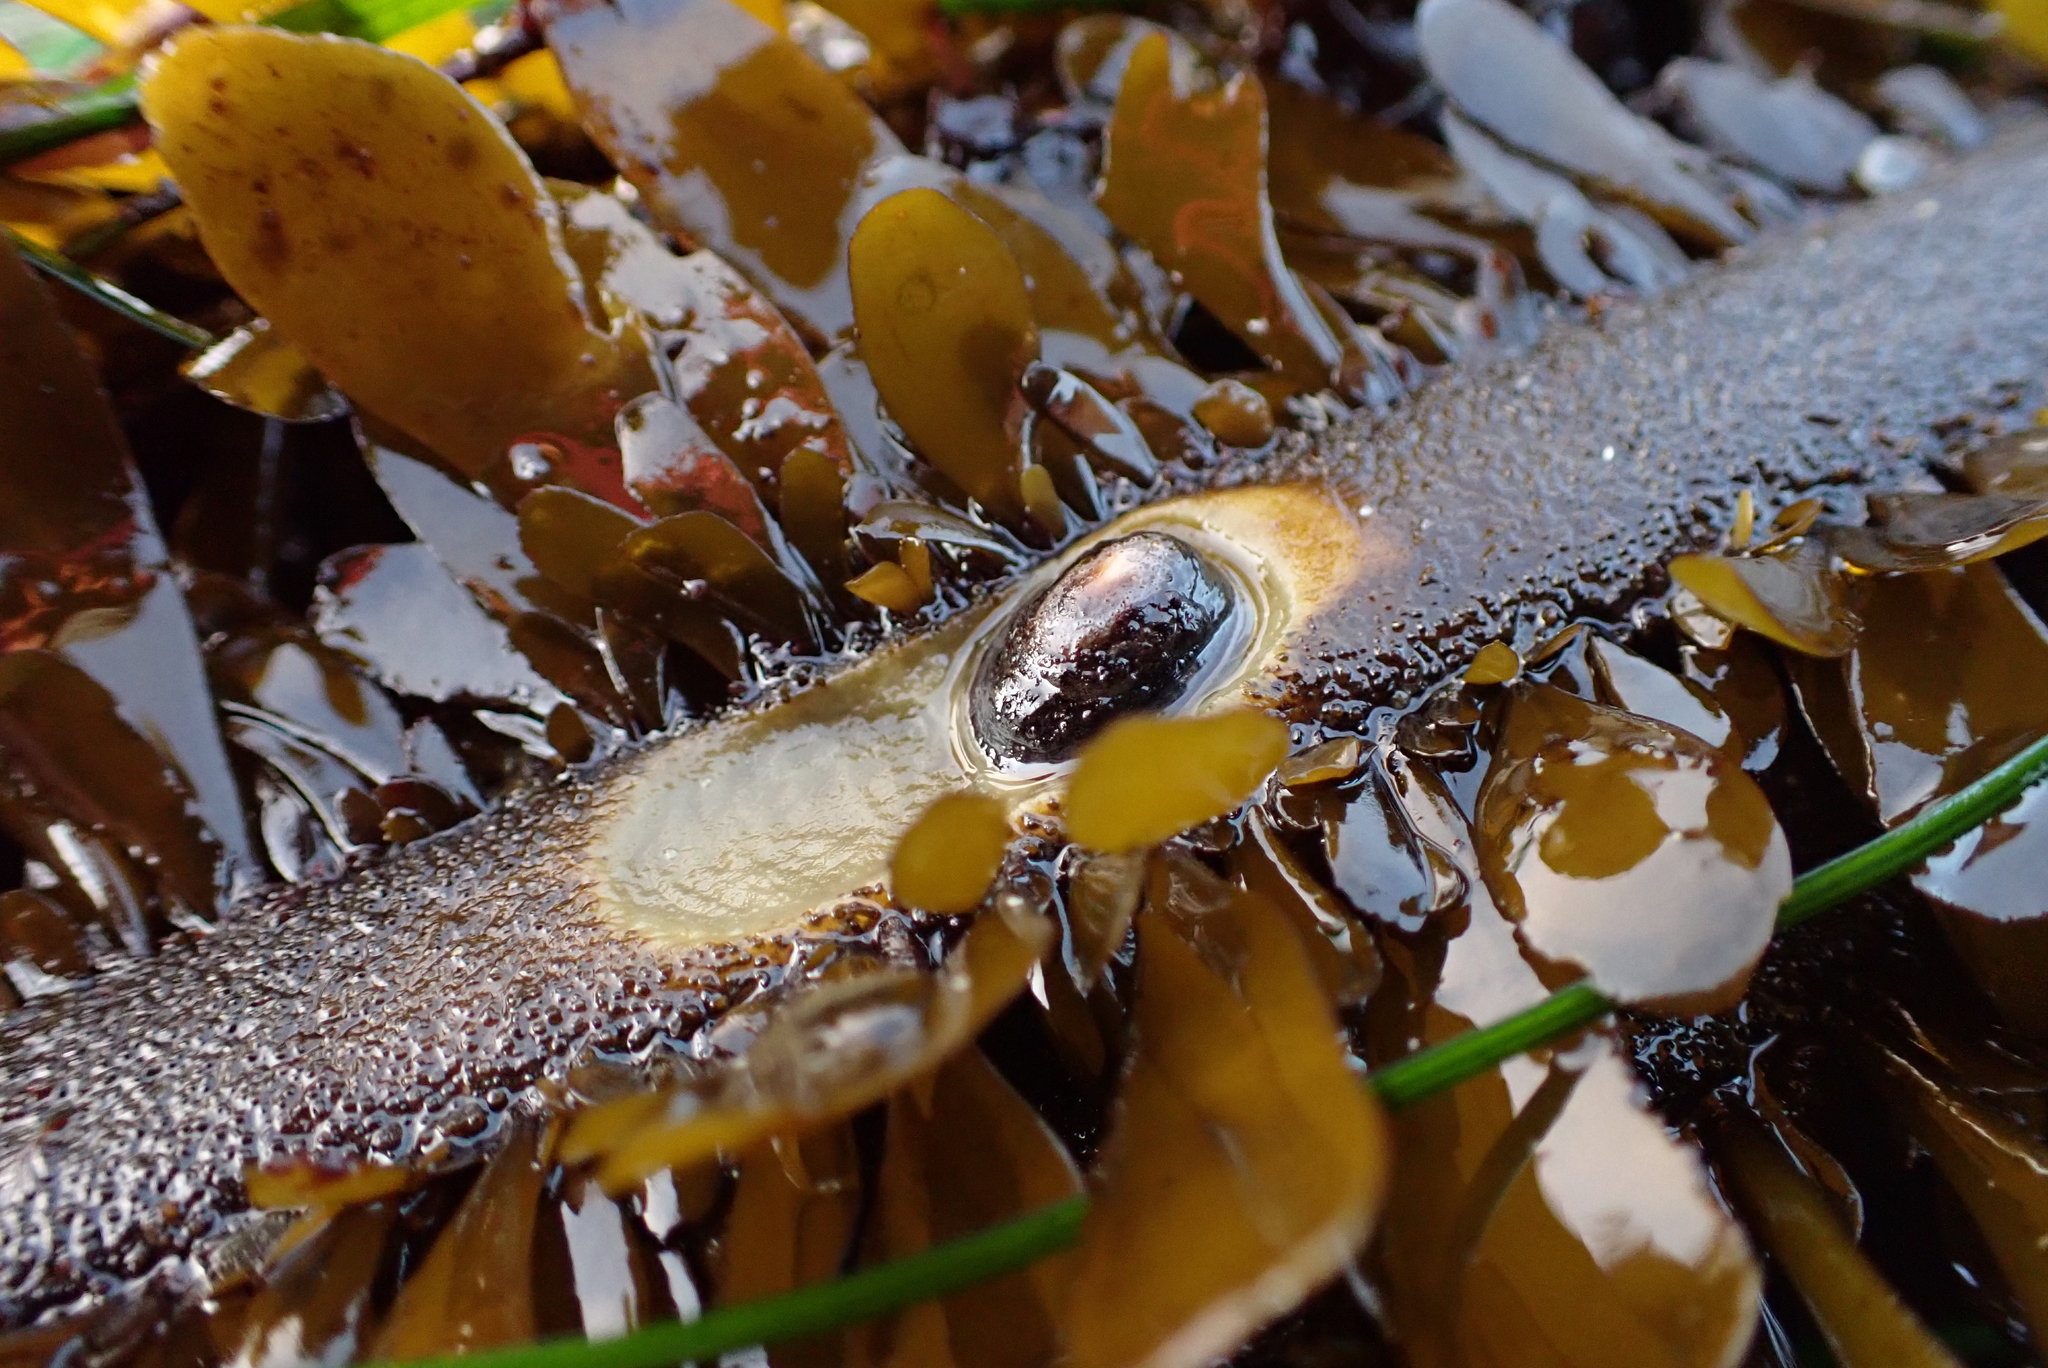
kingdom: Animalia
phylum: Mollusca
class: Gastropoda
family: Lottiidae
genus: Discurria
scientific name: Discurria insessa
